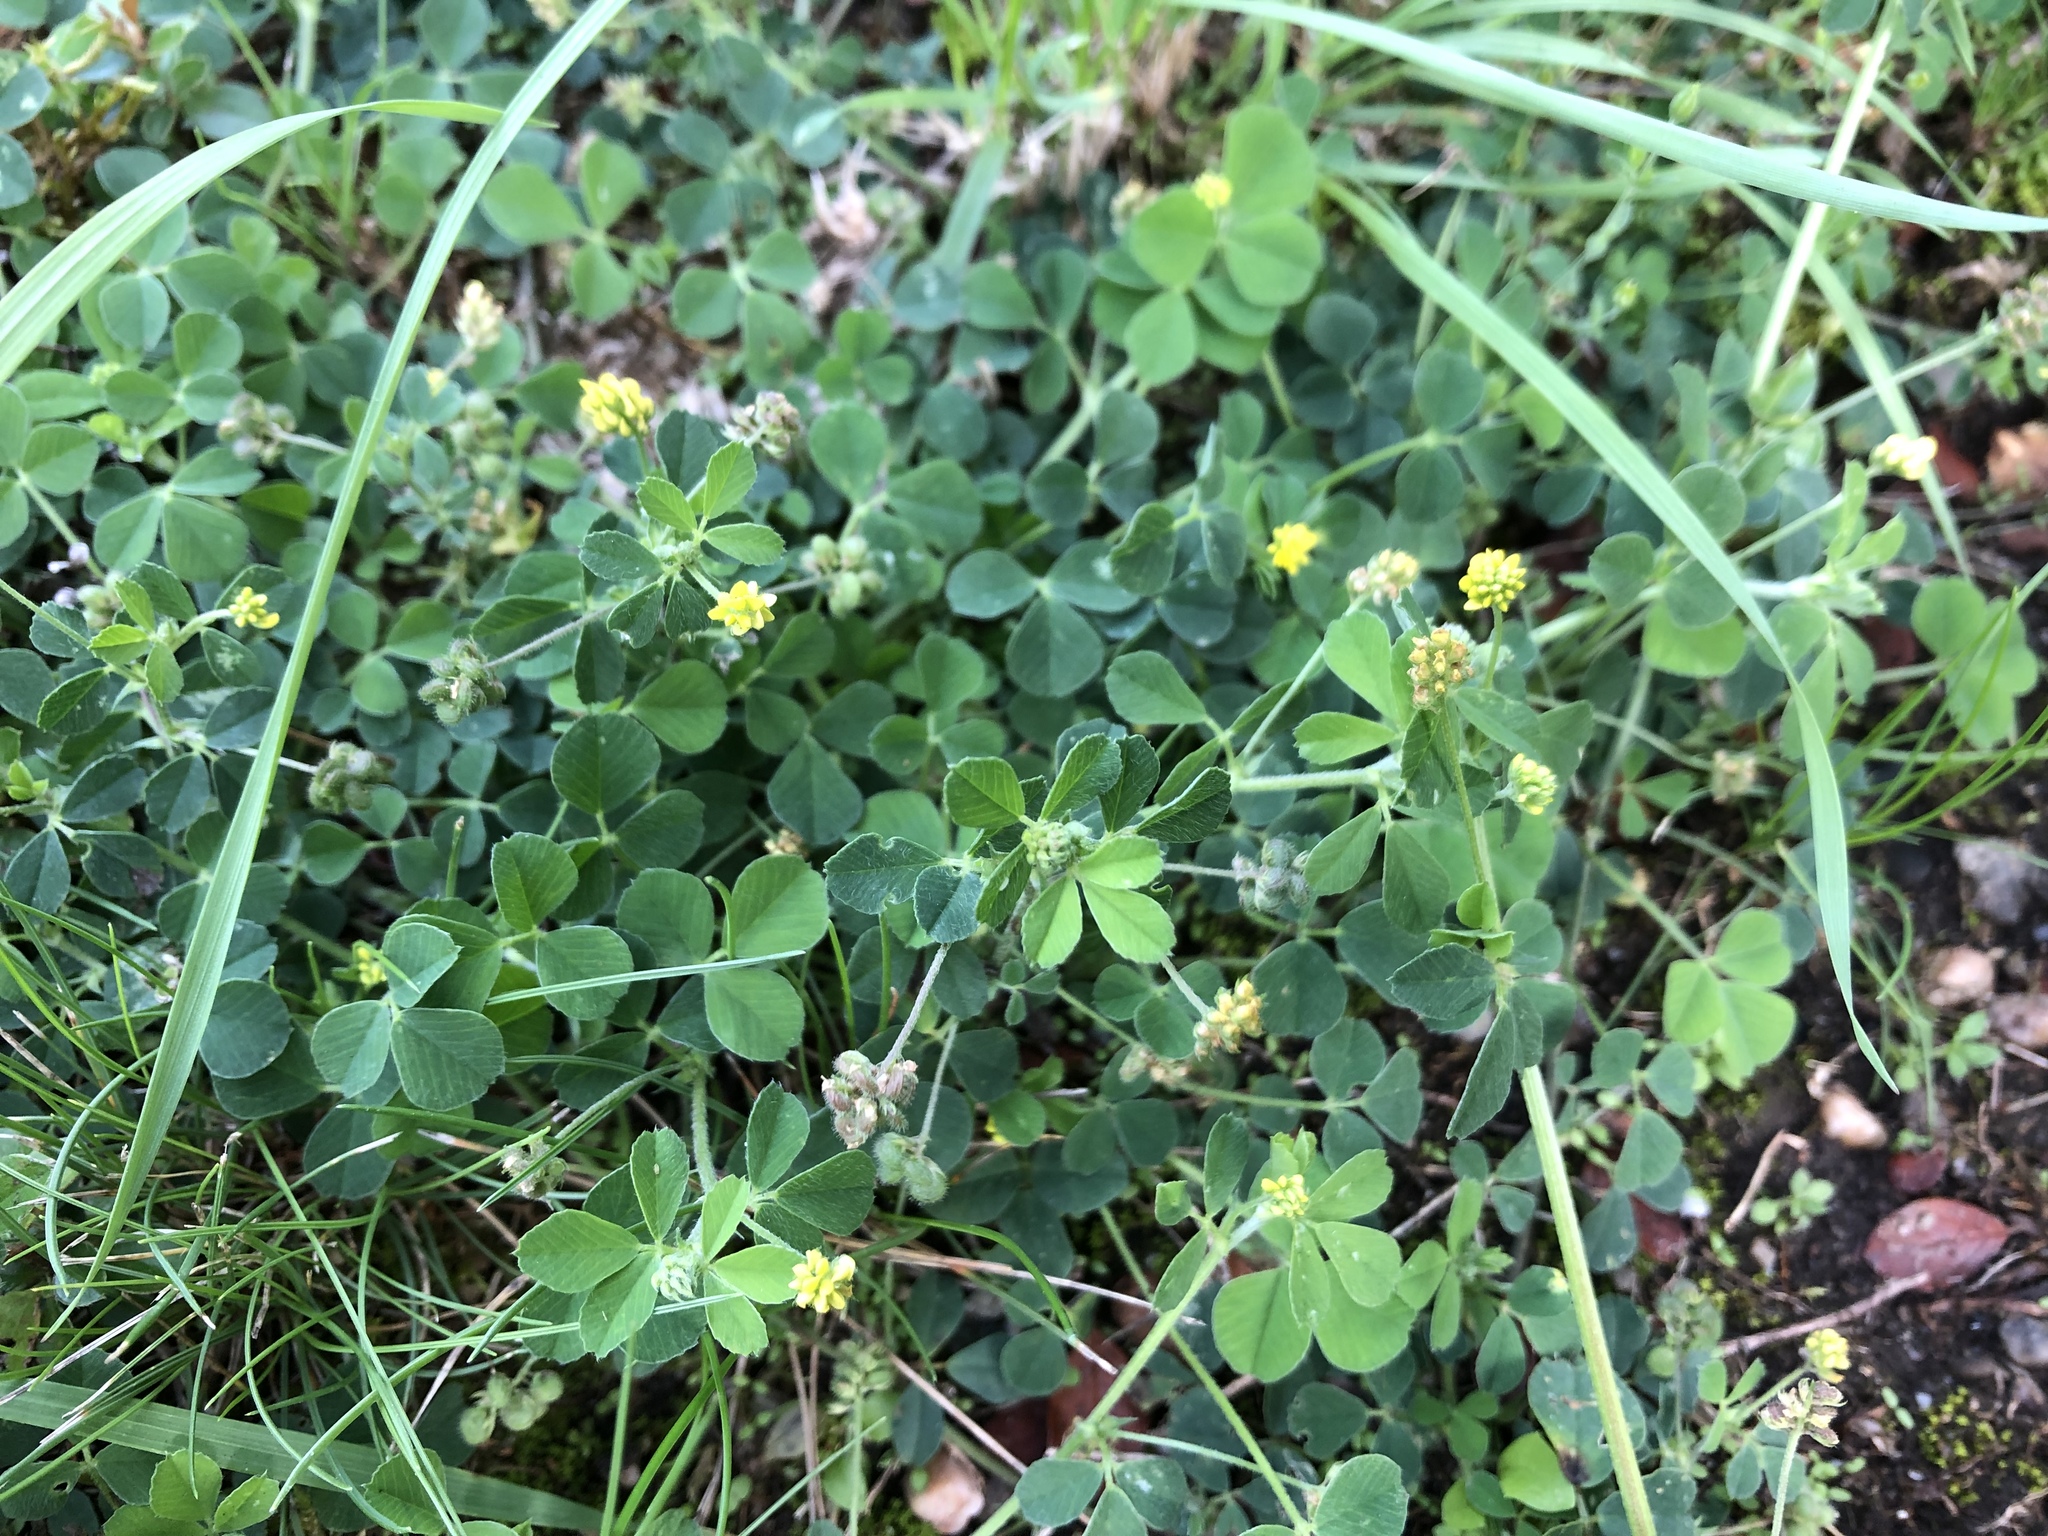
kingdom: Plantae
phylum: Tracheophyta
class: Magnoliopsida
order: Fabales
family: Fabaceae
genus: Medicago
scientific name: Medicago lupulina
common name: Black medick
